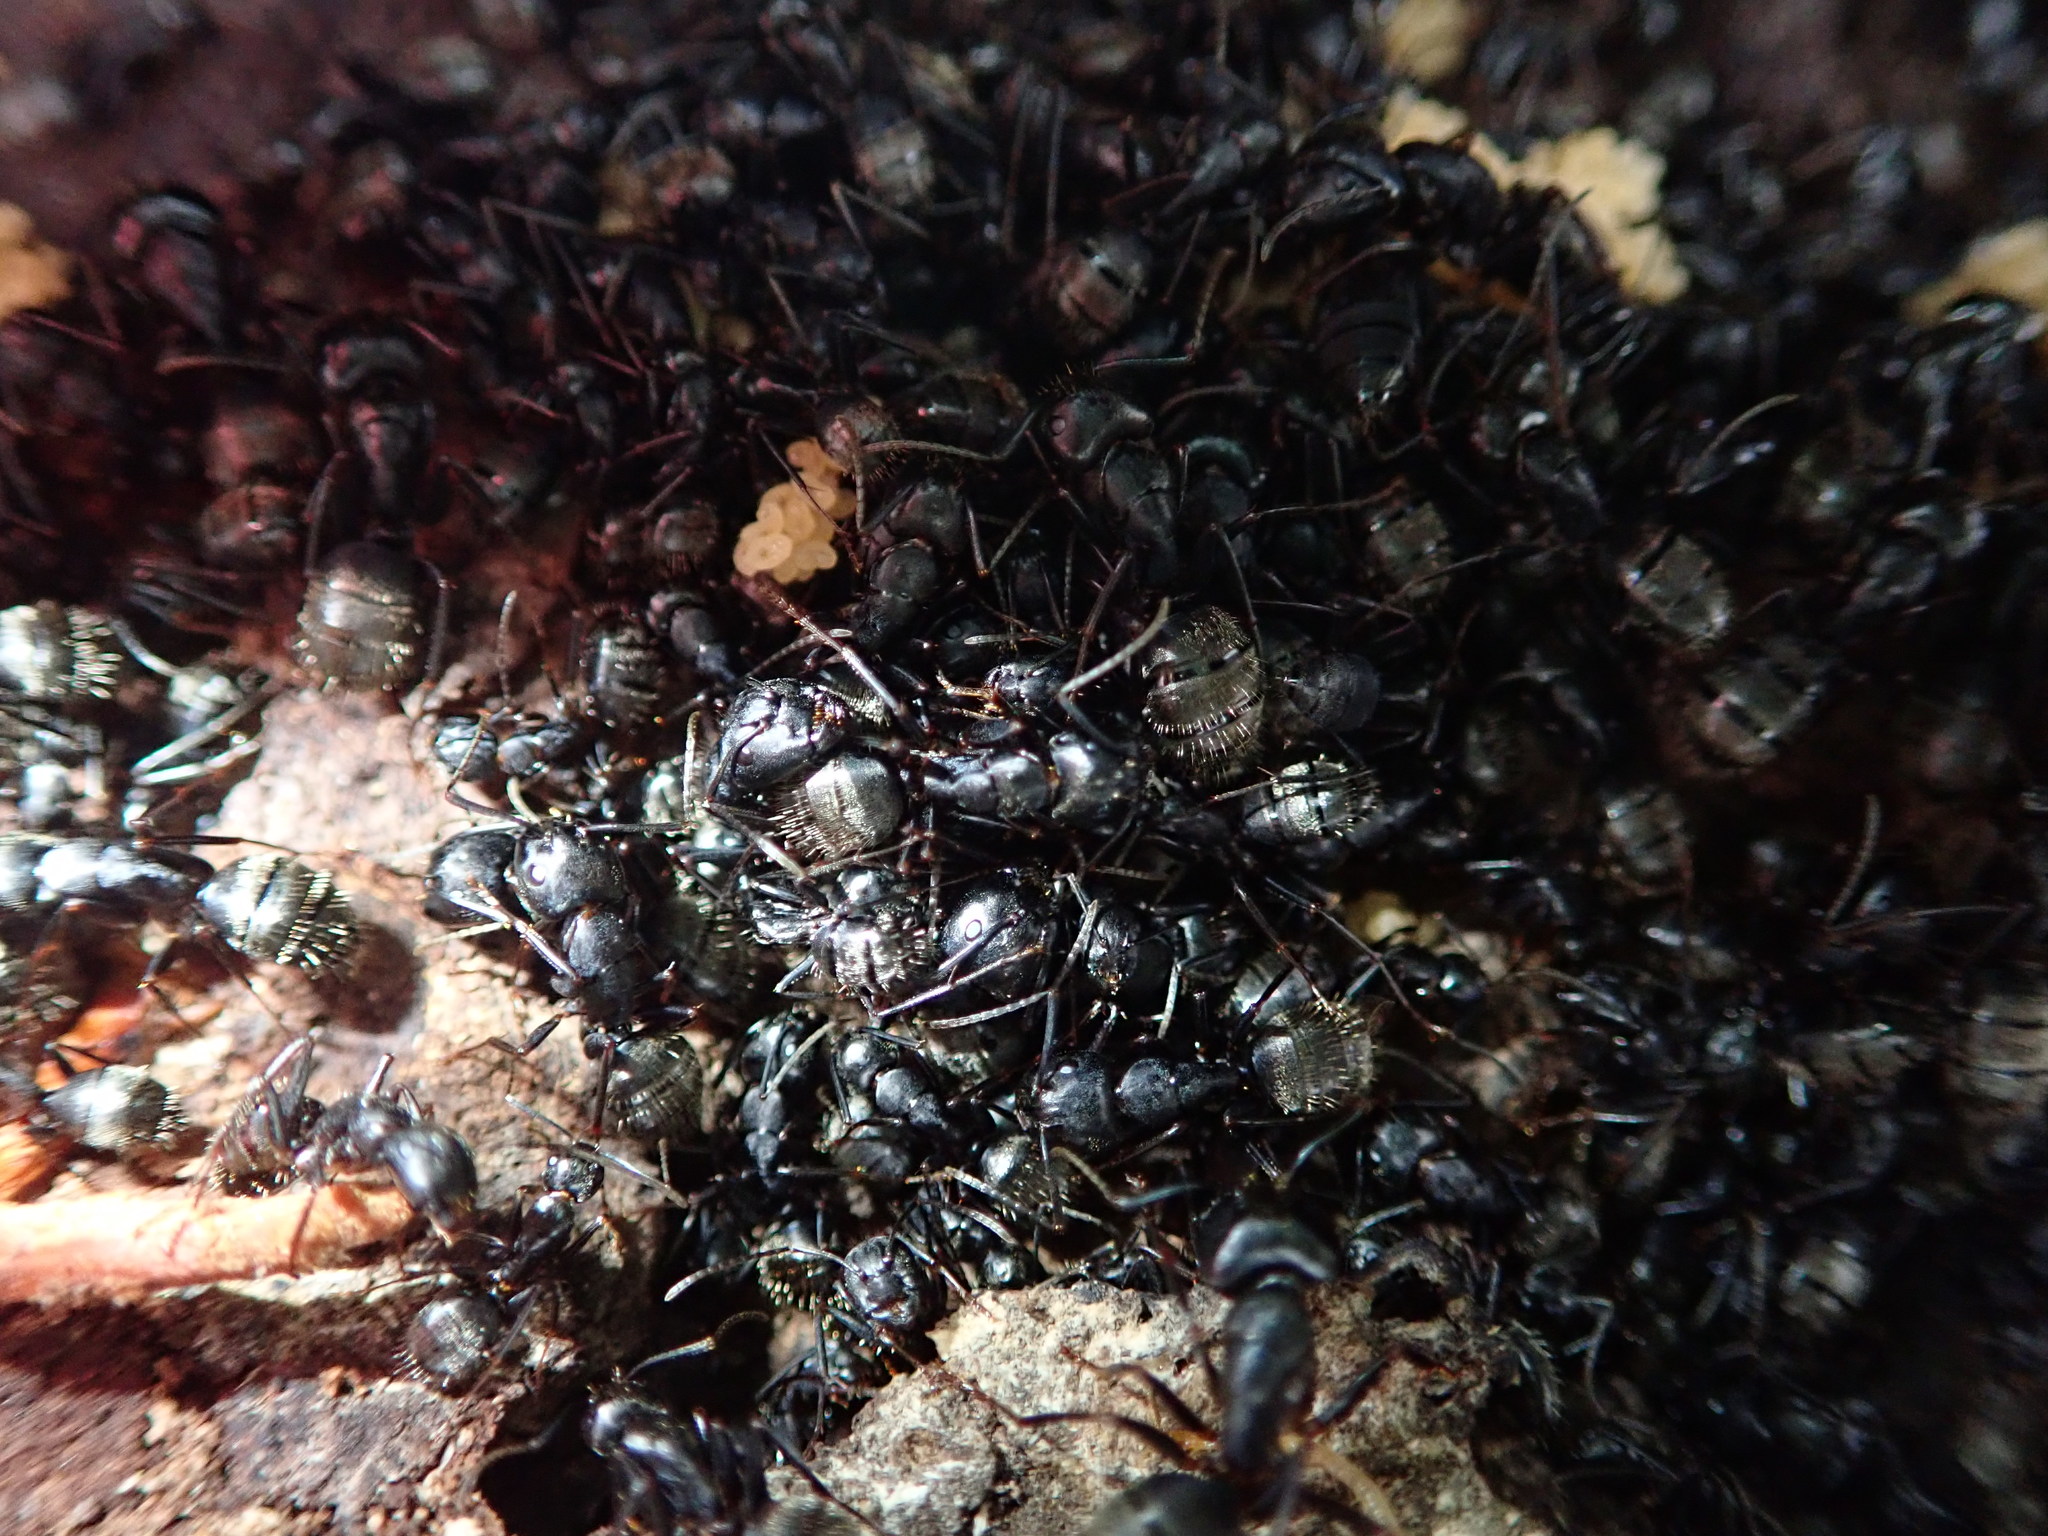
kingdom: Animalia
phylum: Arthropoda
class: Insecta
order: Hymenoptera
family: Formicidae
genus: Camponotus
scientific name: Camponotus pennsylvanicus
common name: Black carpenter ant
